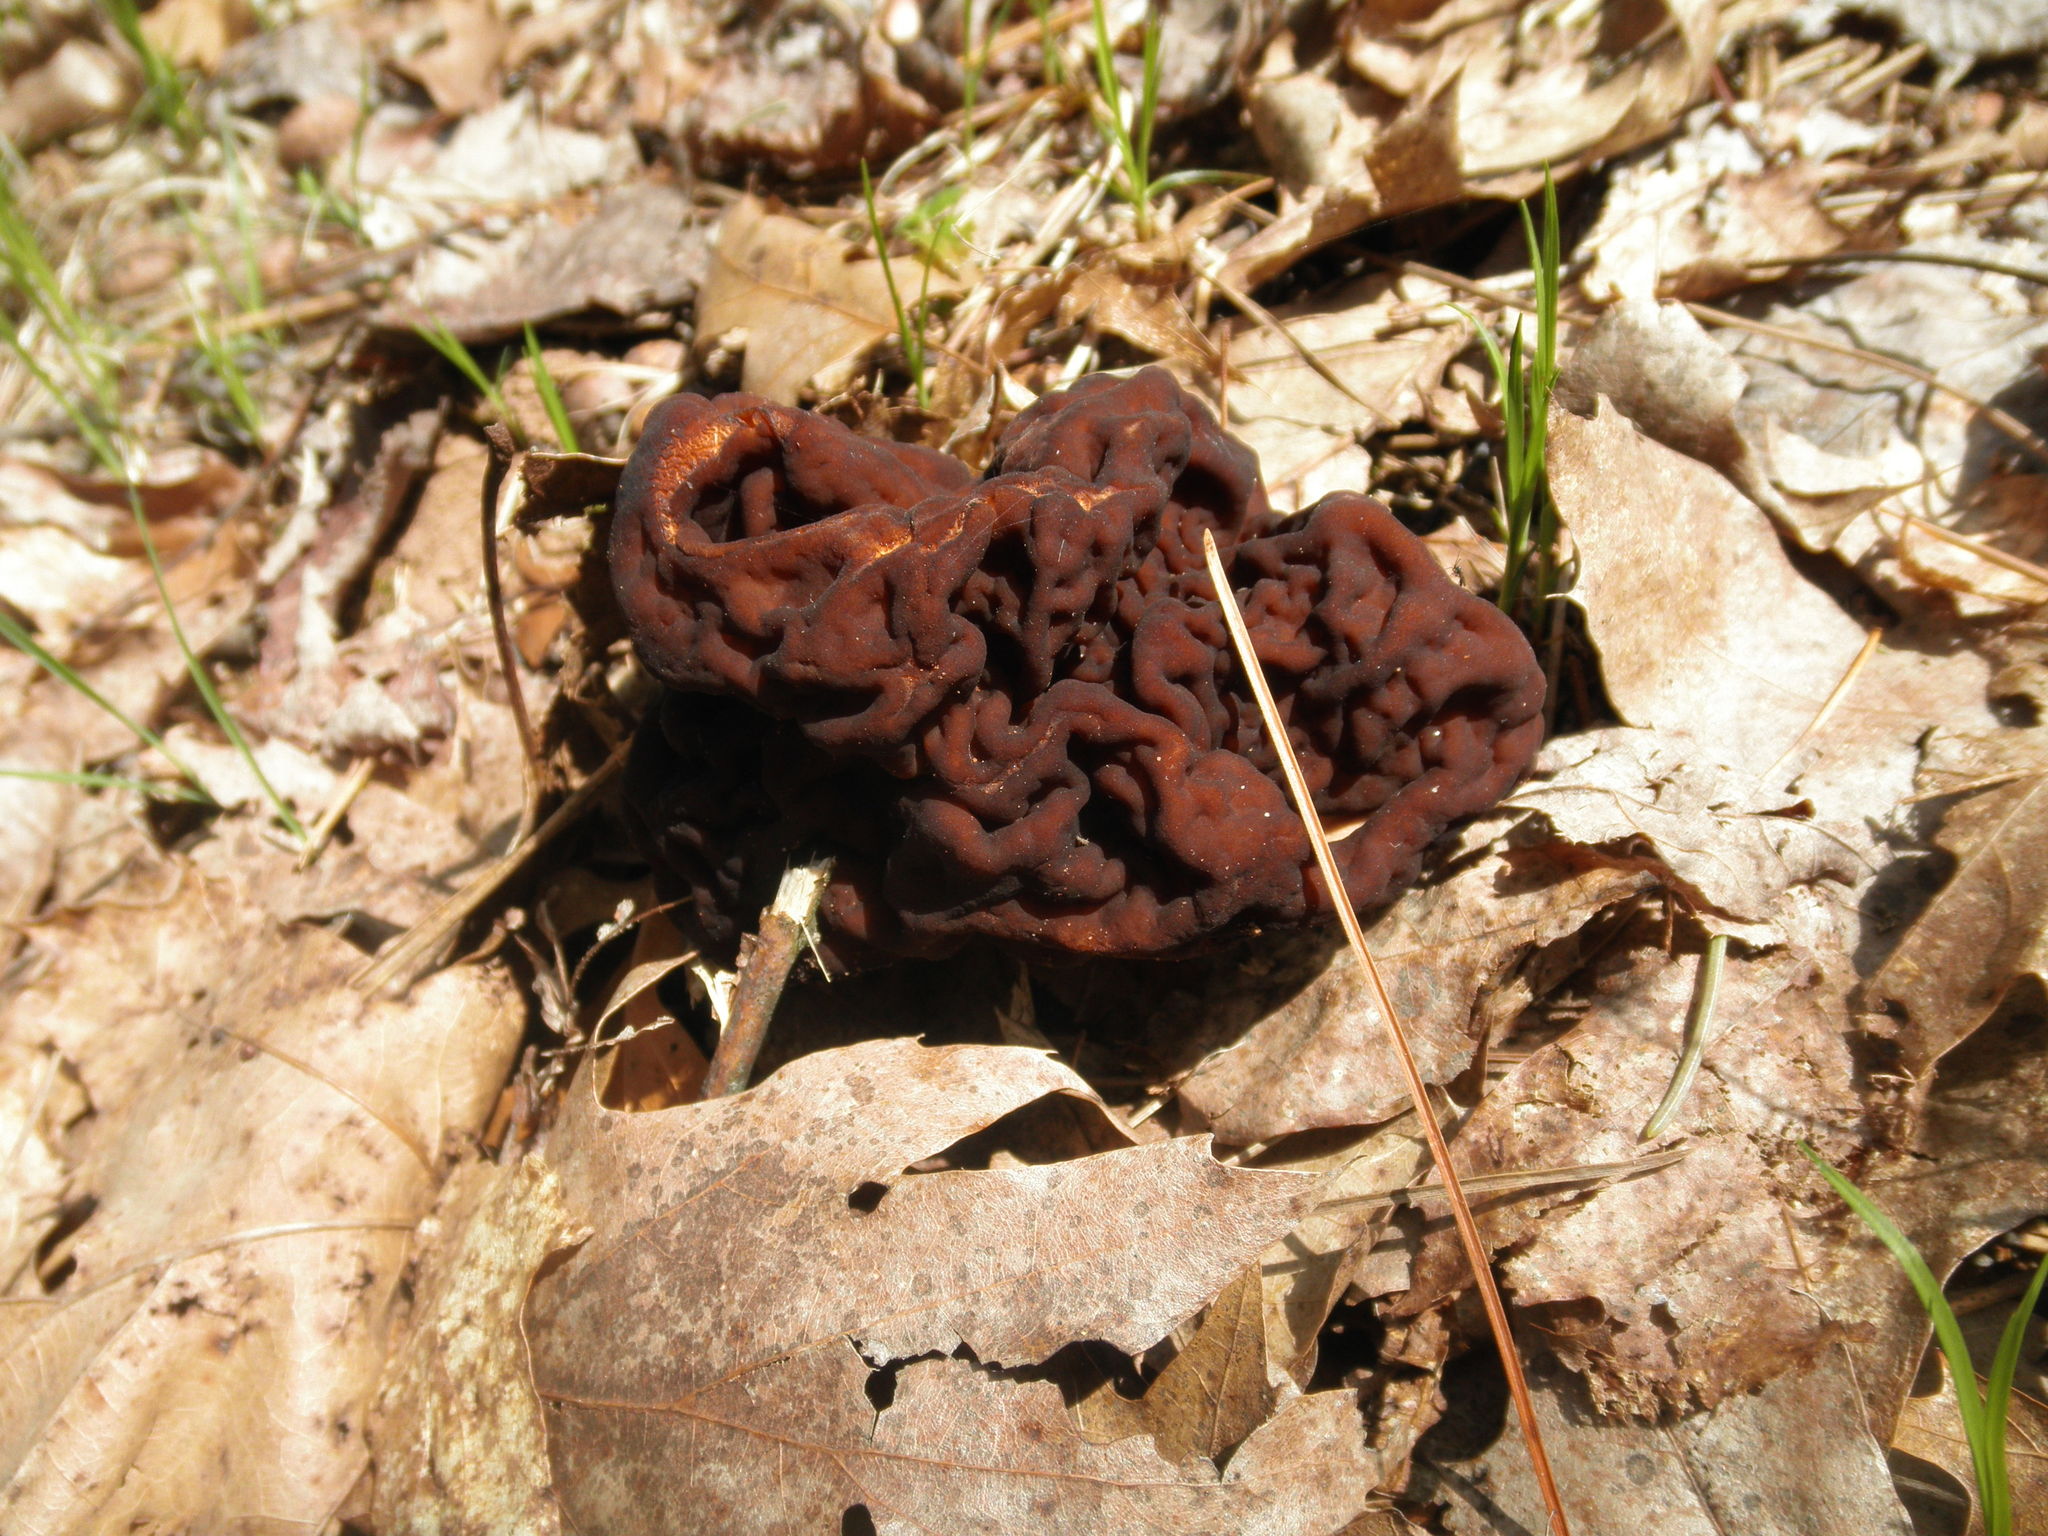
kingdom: Fungi
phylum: Ascomycota
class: Pezizomycetes
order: Pezizales
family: Discinaceae
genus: Gyromitra
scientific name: Gyromitra esculenta
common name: False morel
